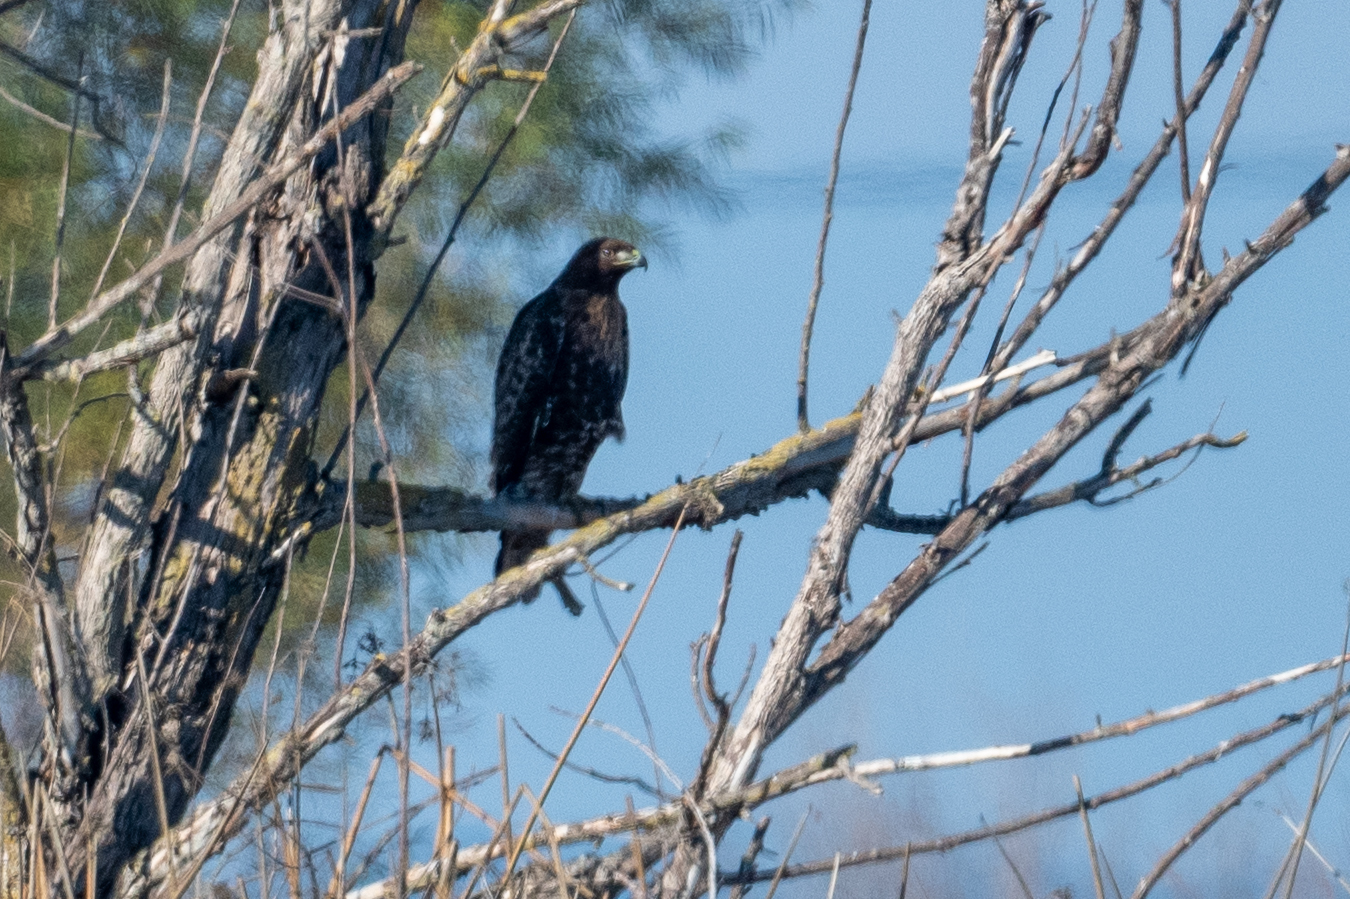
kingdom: Animalia
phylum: Chordata
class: Aves
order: Accipitriformes
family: Accipitridae
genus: Buteo
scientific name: Buteo jamaicensis
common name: Red-tailed hawk
